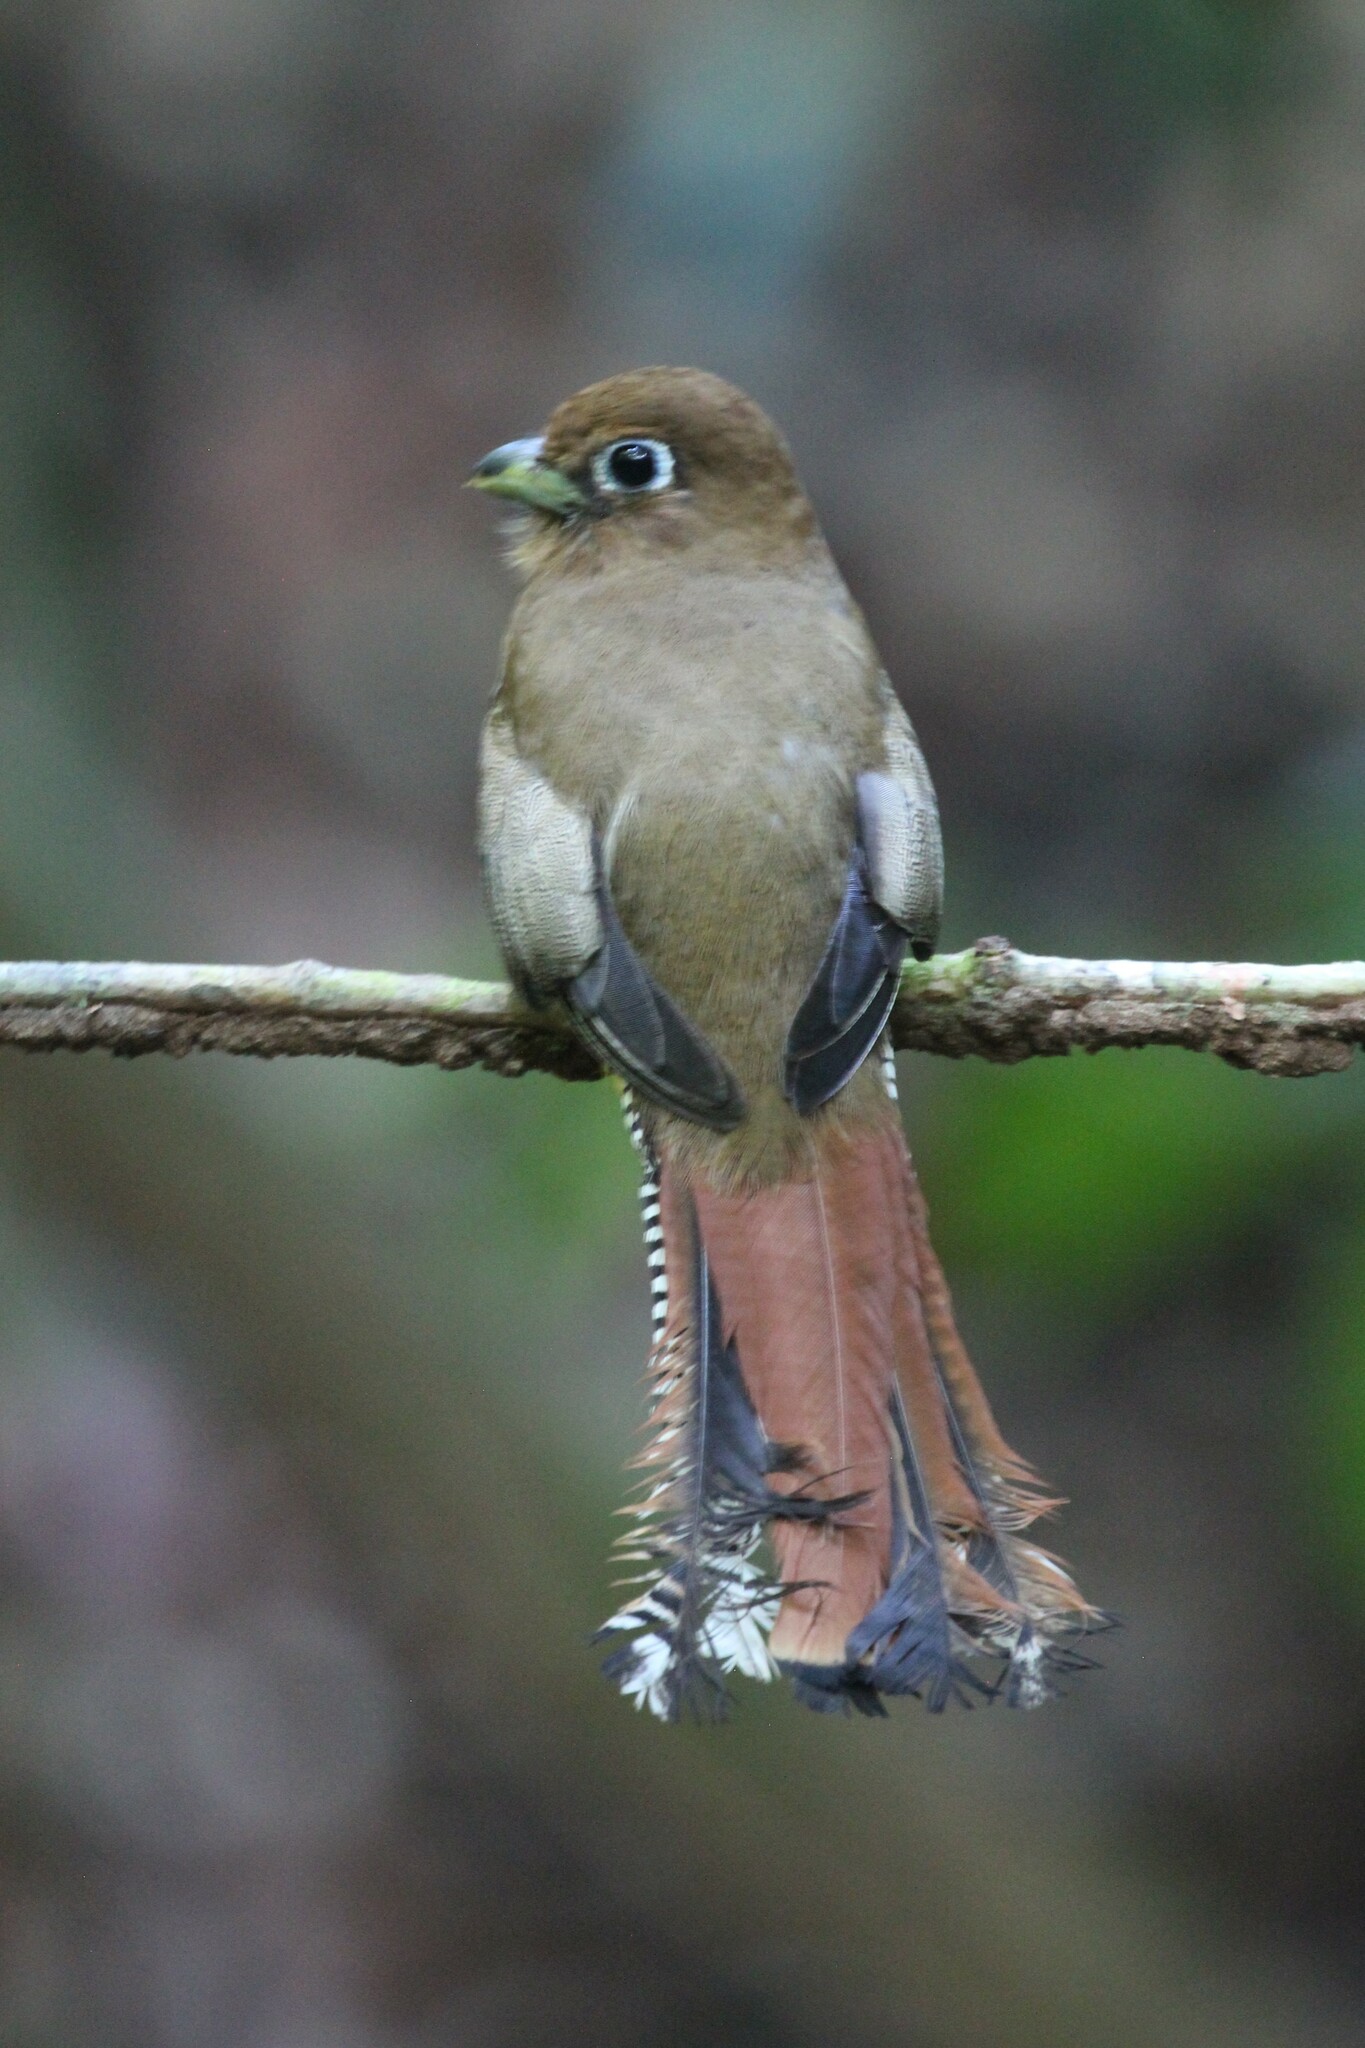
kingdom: Animalia
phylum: Chordata
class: Aves
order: Trogoniformes
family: Trogonidae
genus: Trogon
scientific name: Trogon rufus
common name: Black-throated trogon
